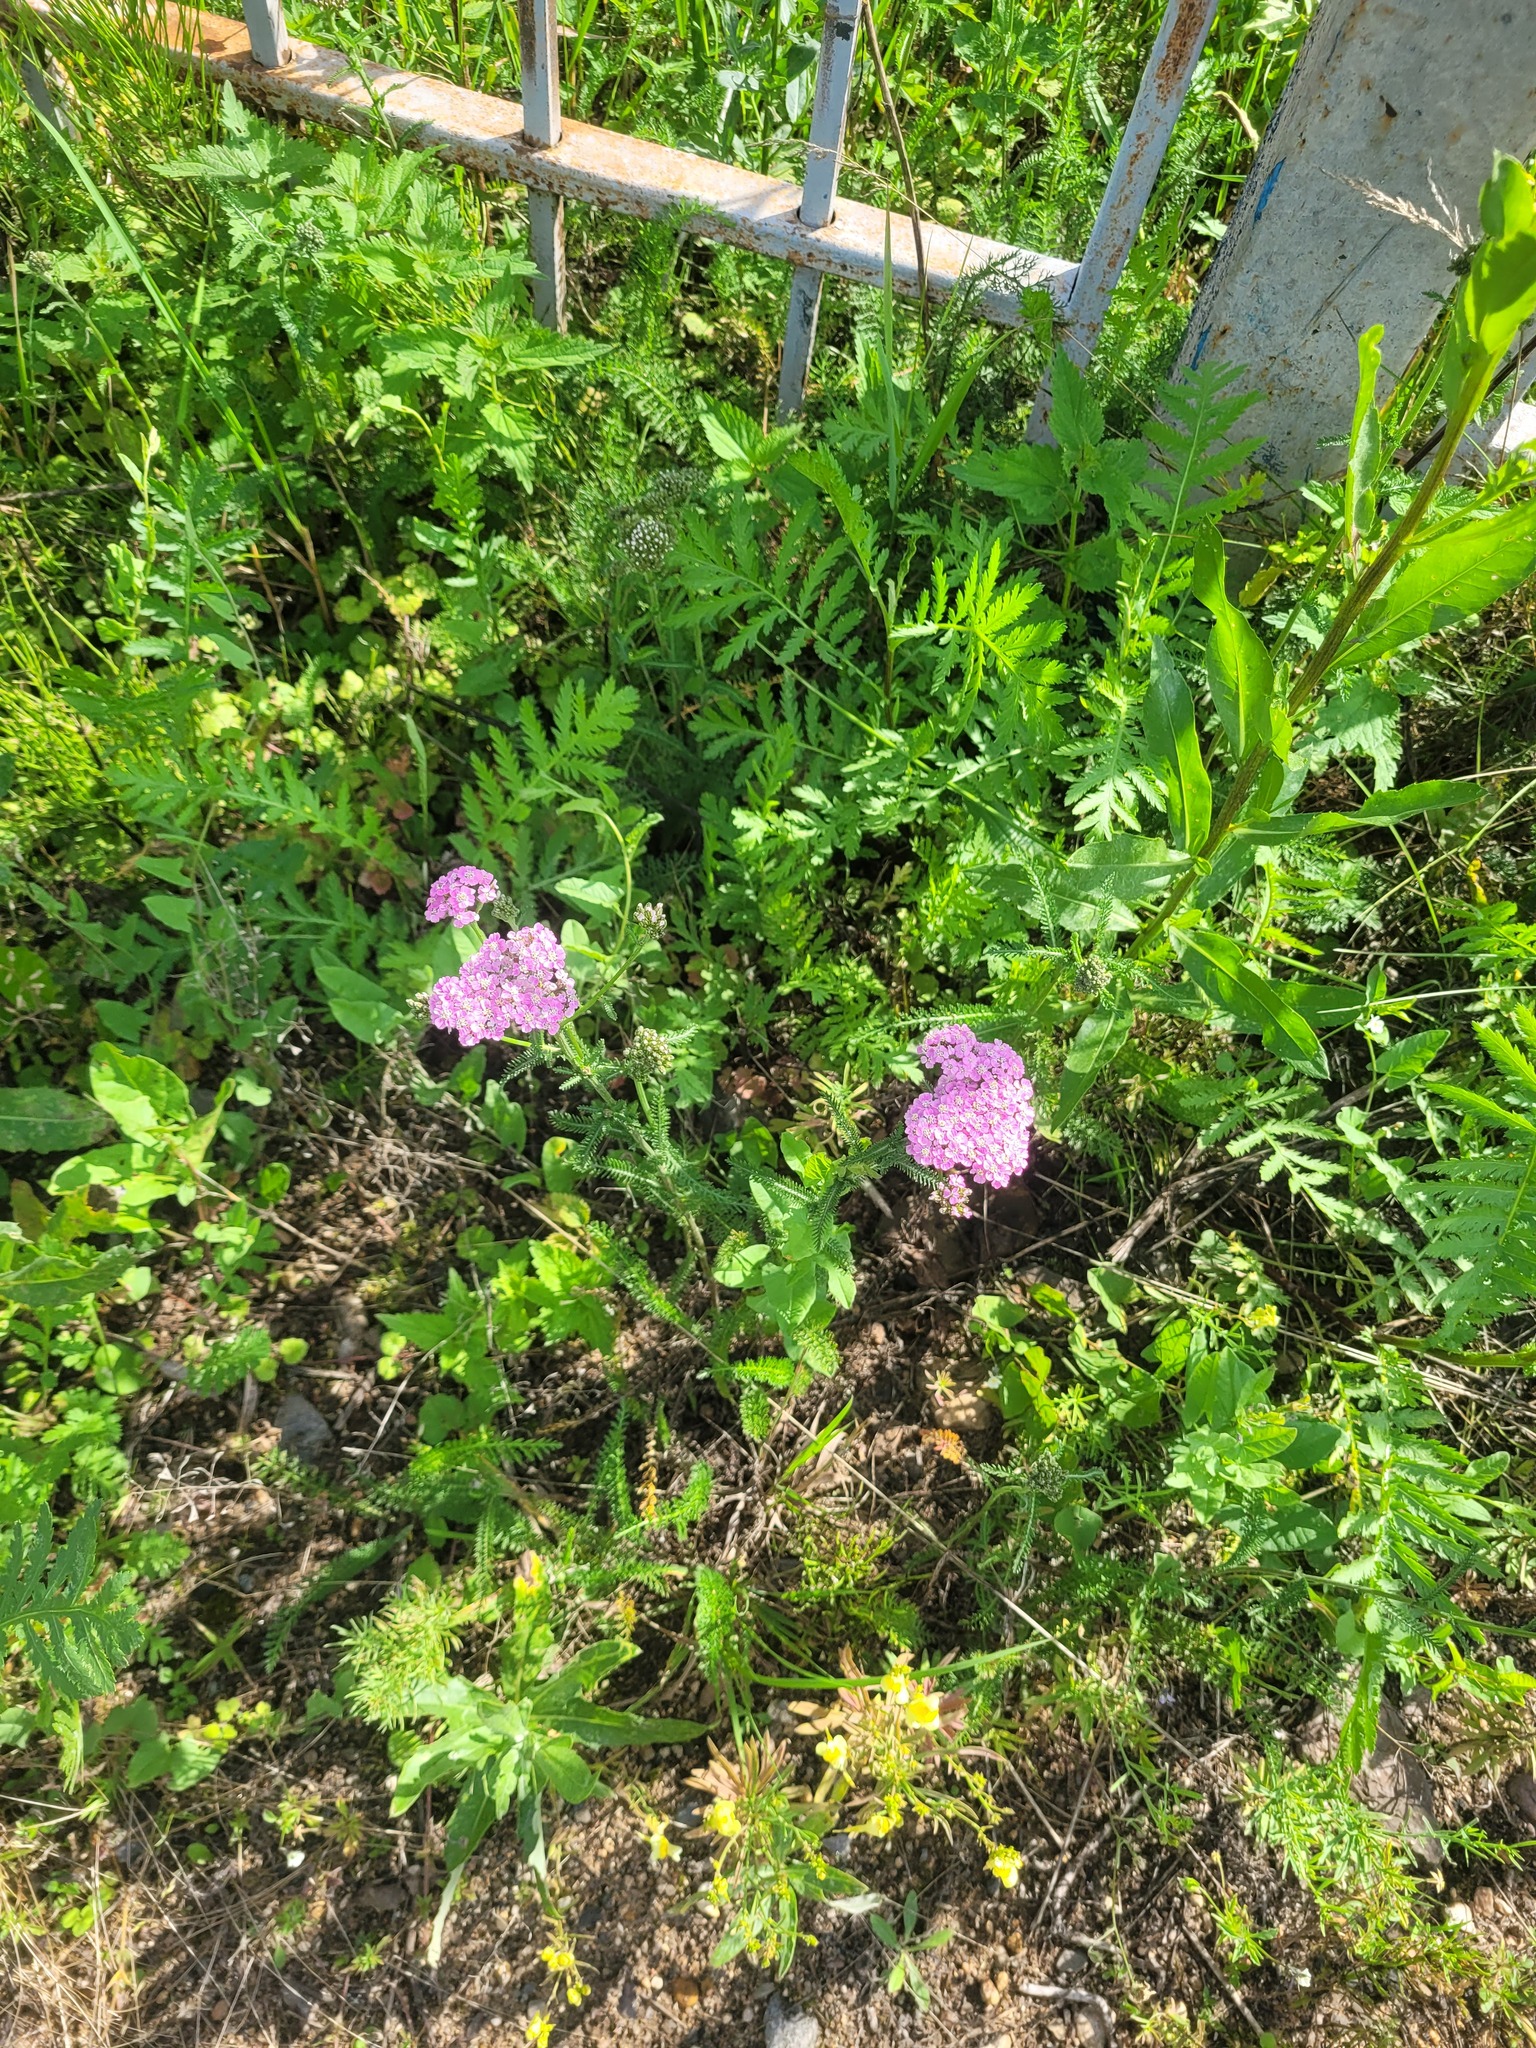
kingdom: Plantae
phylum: Tracheophyta
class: Magnoliopsida
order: Asterales
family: Asteraceae
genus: Achillea
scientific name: Achillea millefolium
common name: Yarrow
